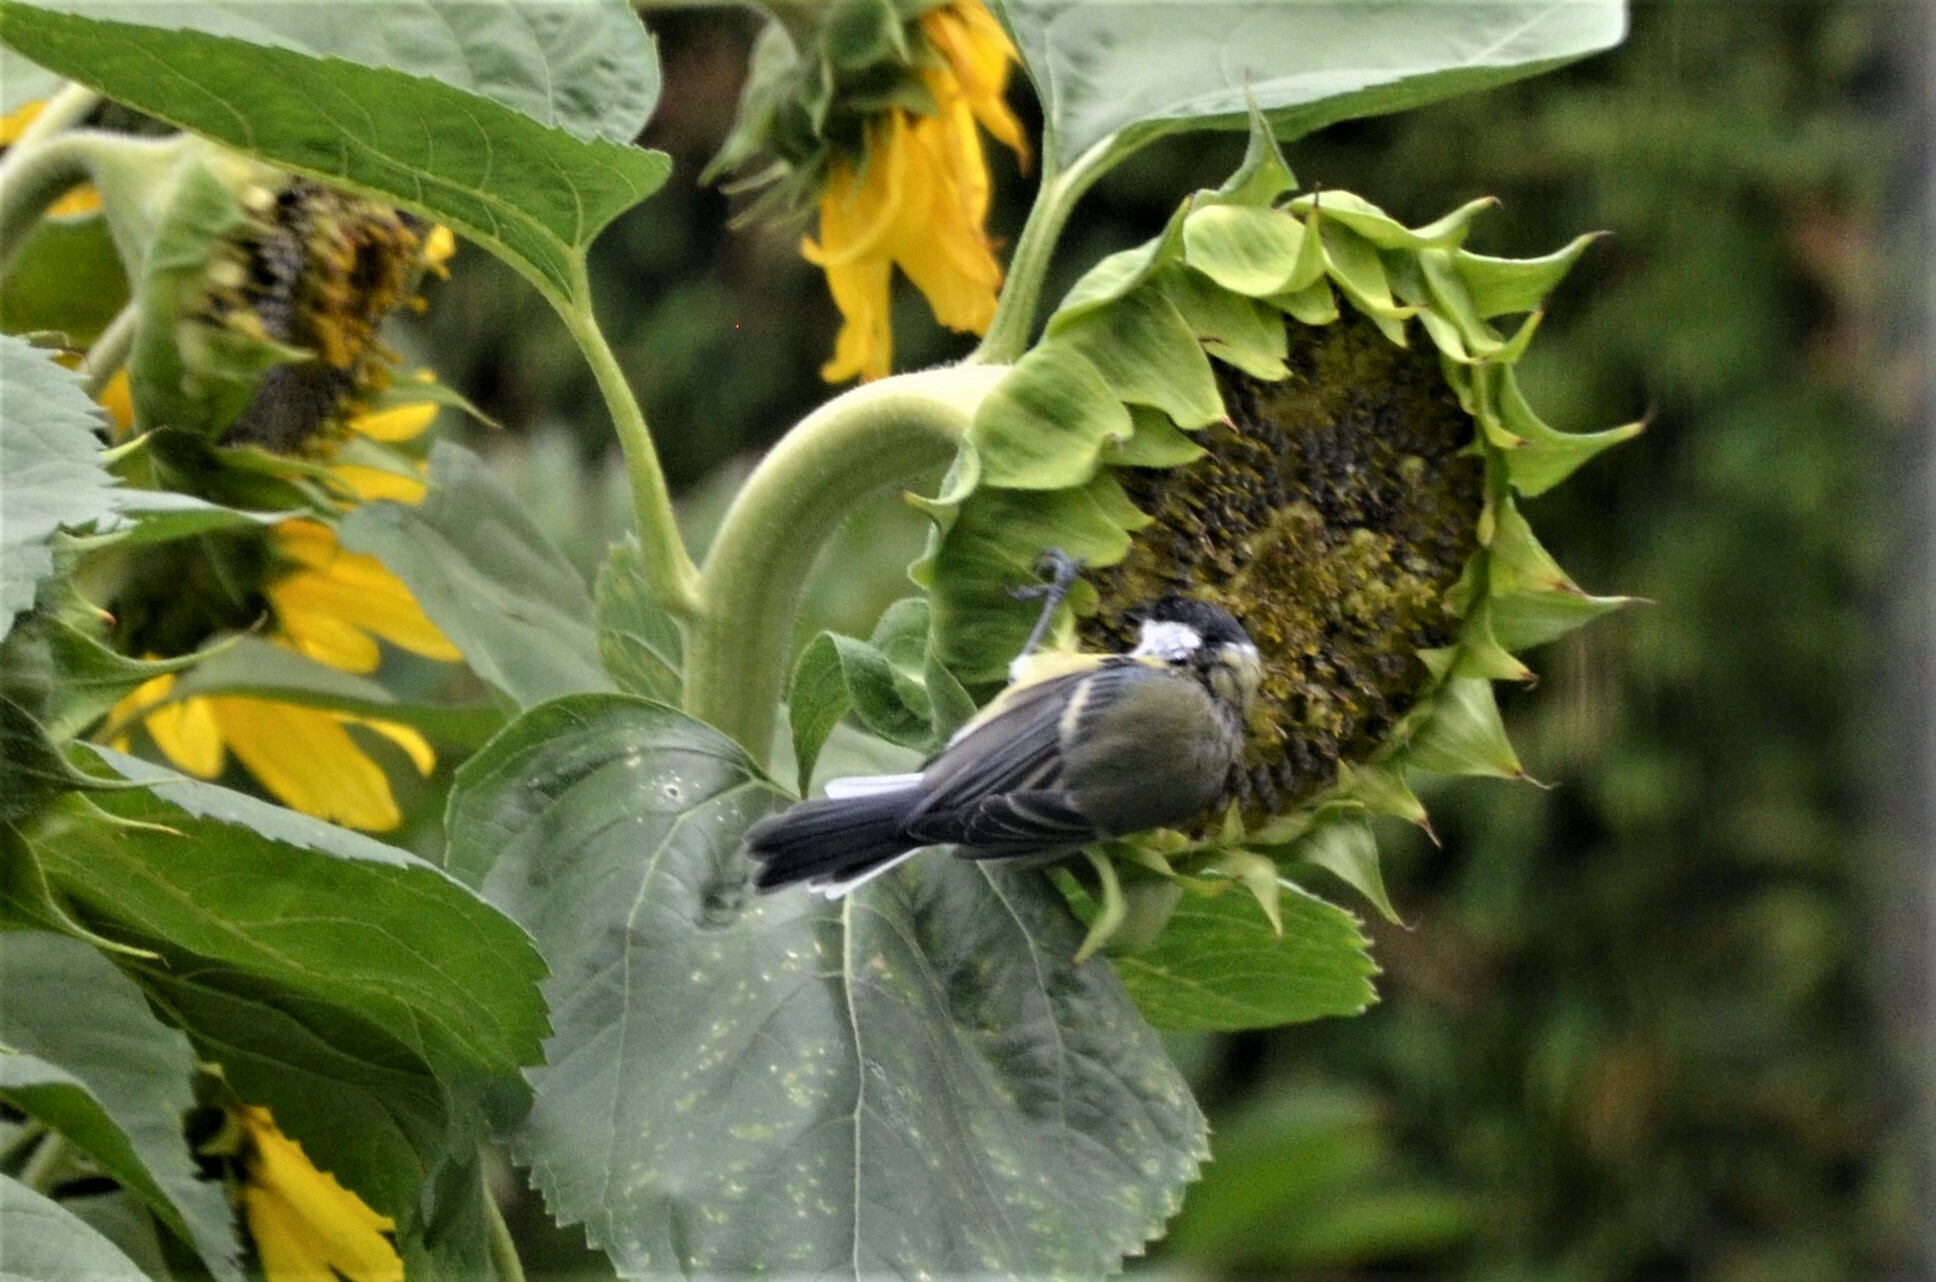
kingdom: Animalia
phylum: Chordata
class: Aves
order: Passeriformes
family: Paridae
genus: Parus
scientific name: Parus major
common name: Great tit
